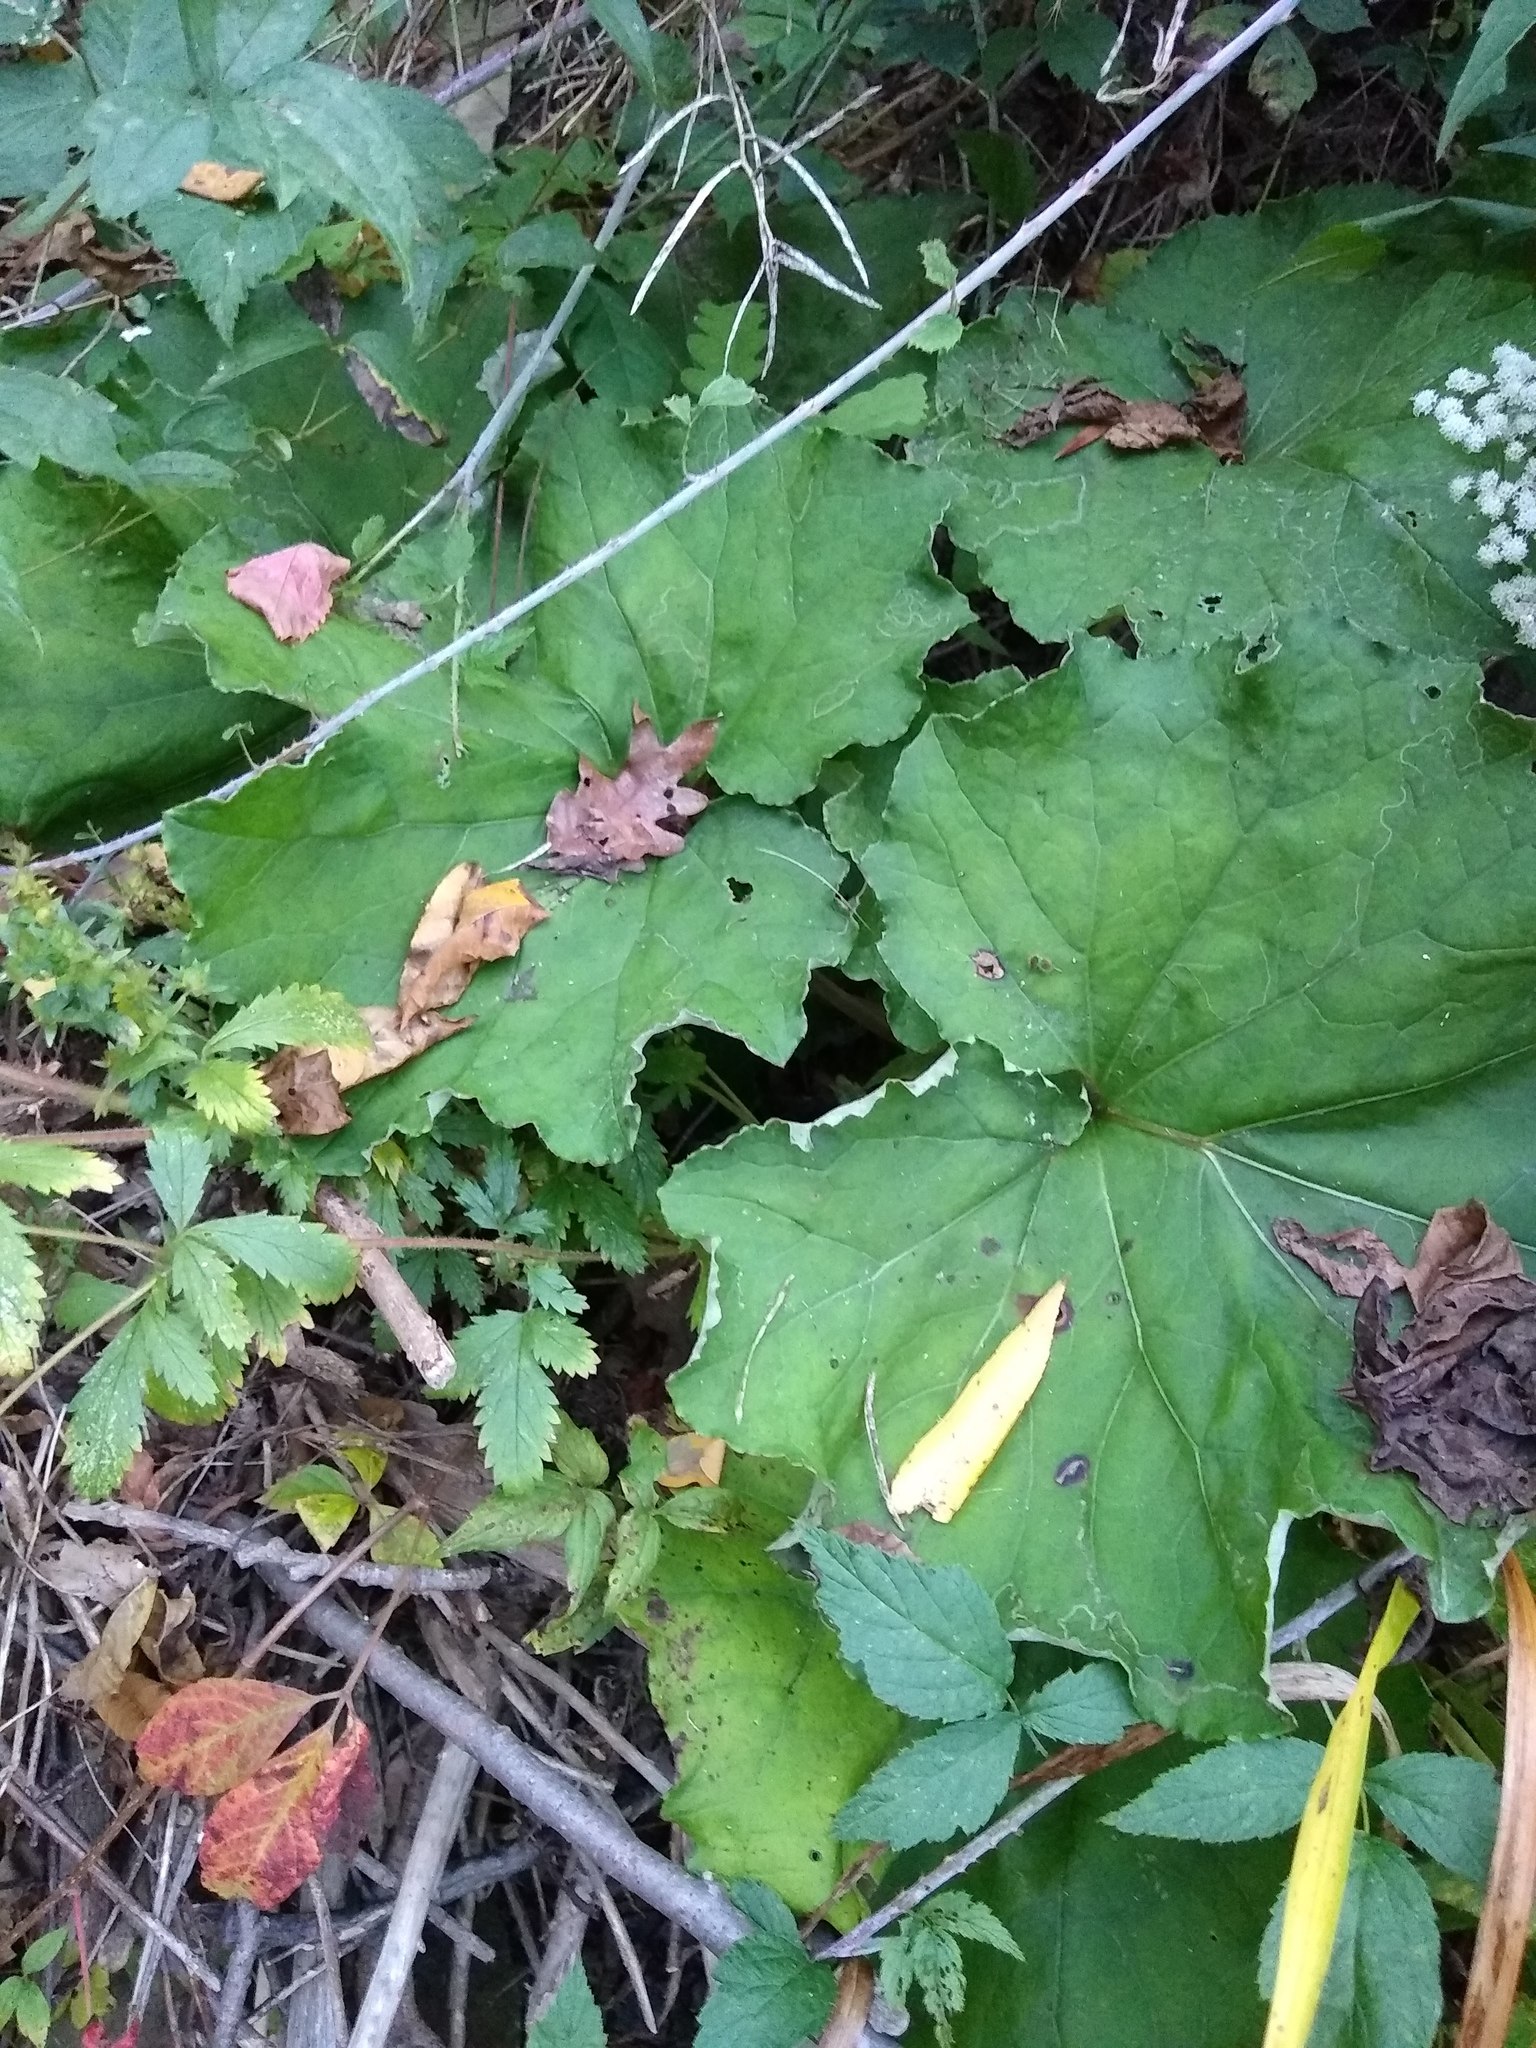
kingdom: Plantae
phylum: Tracheophyta
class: Magnoliopsida
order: Asterales
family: Asteraceae
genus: Tussilago
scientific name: Tussilago farfara
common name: Coltsfoot
